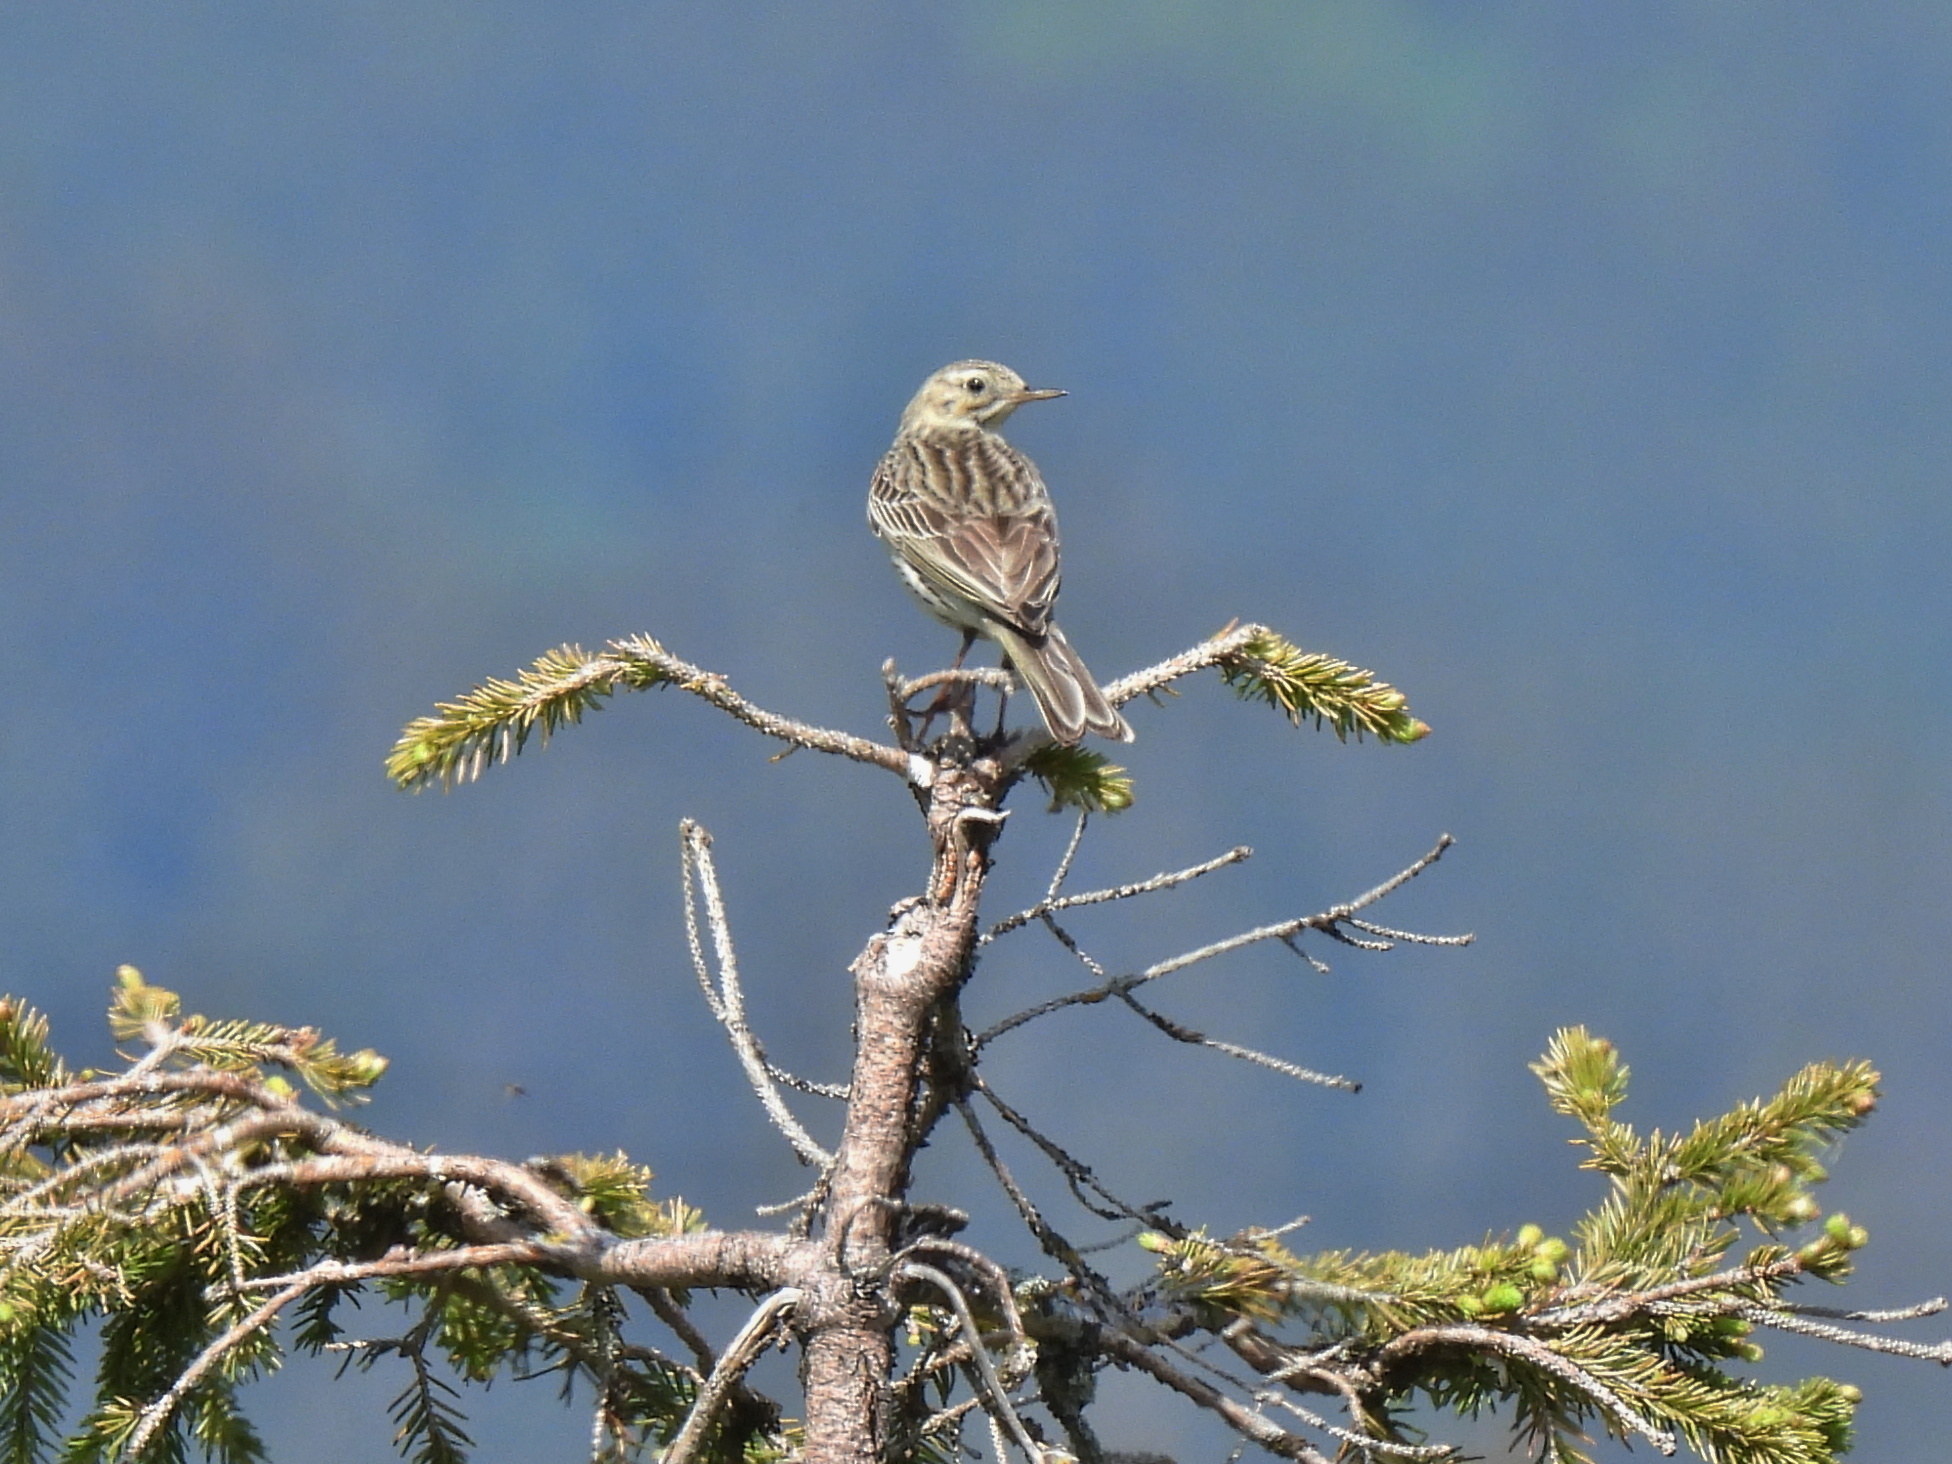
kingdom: Animalia
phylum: Chordata
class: Aves
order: Passeriformes
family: Motacillidae
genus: Anthus
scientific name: Anthus trivialis
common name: Tree pipit
